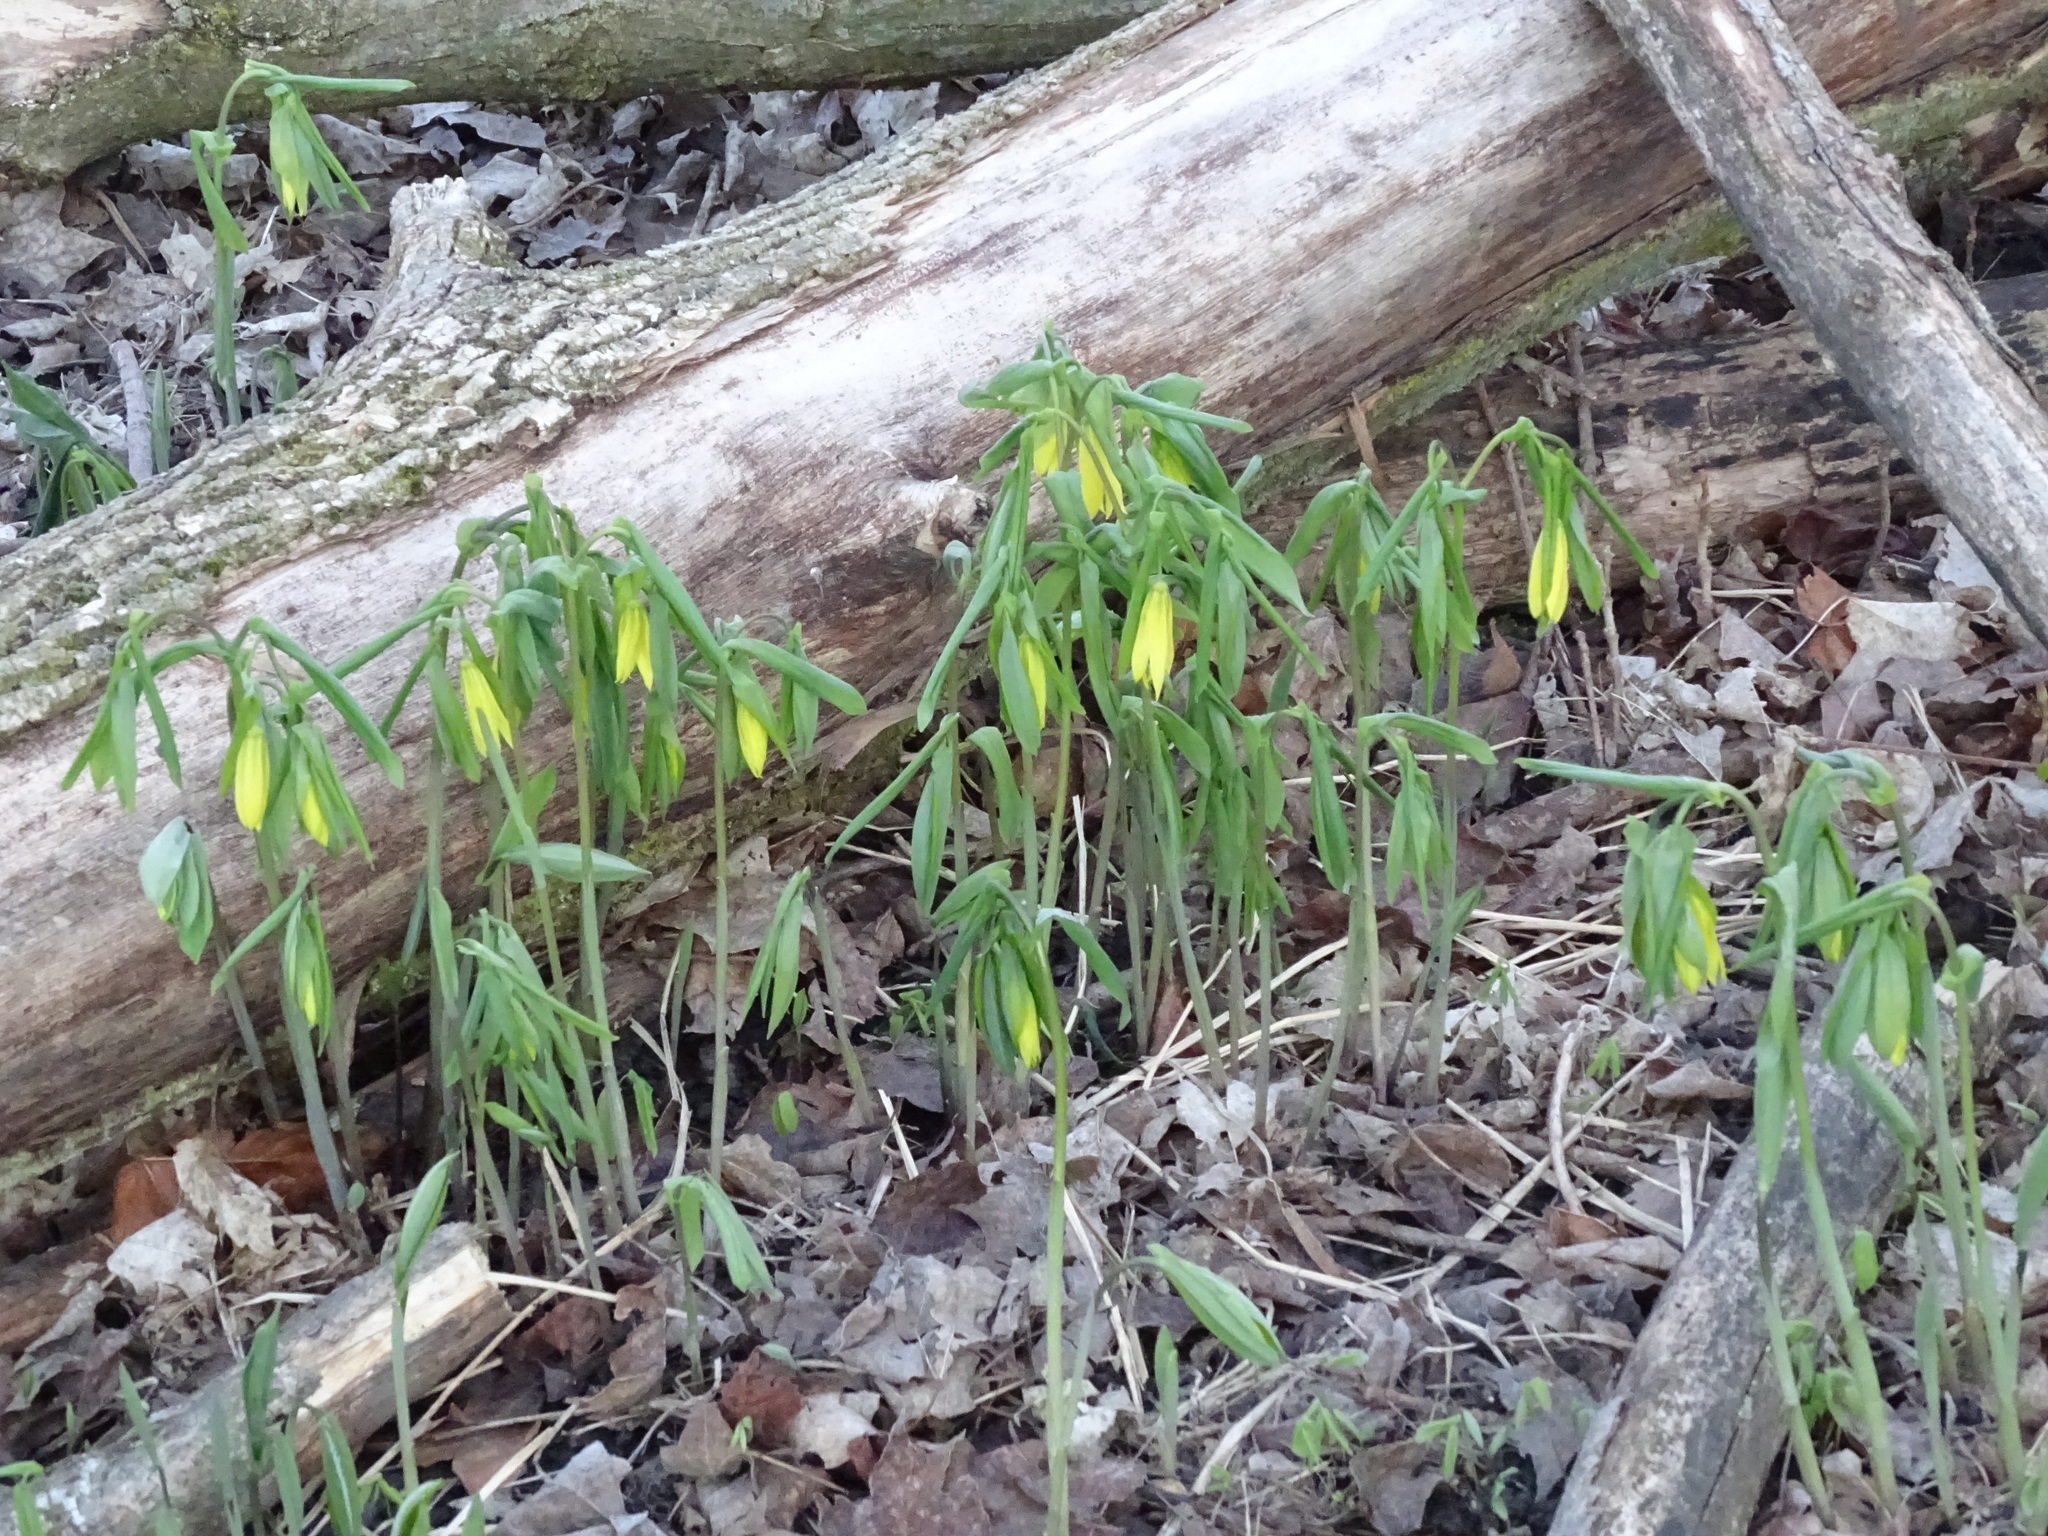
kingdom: Plantae
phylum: Tracheophyta
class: Liliopsida
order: Liliales
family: Colchicaceae
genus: Uvularia
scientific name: Uvularia grandiflora
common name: Bellwort
